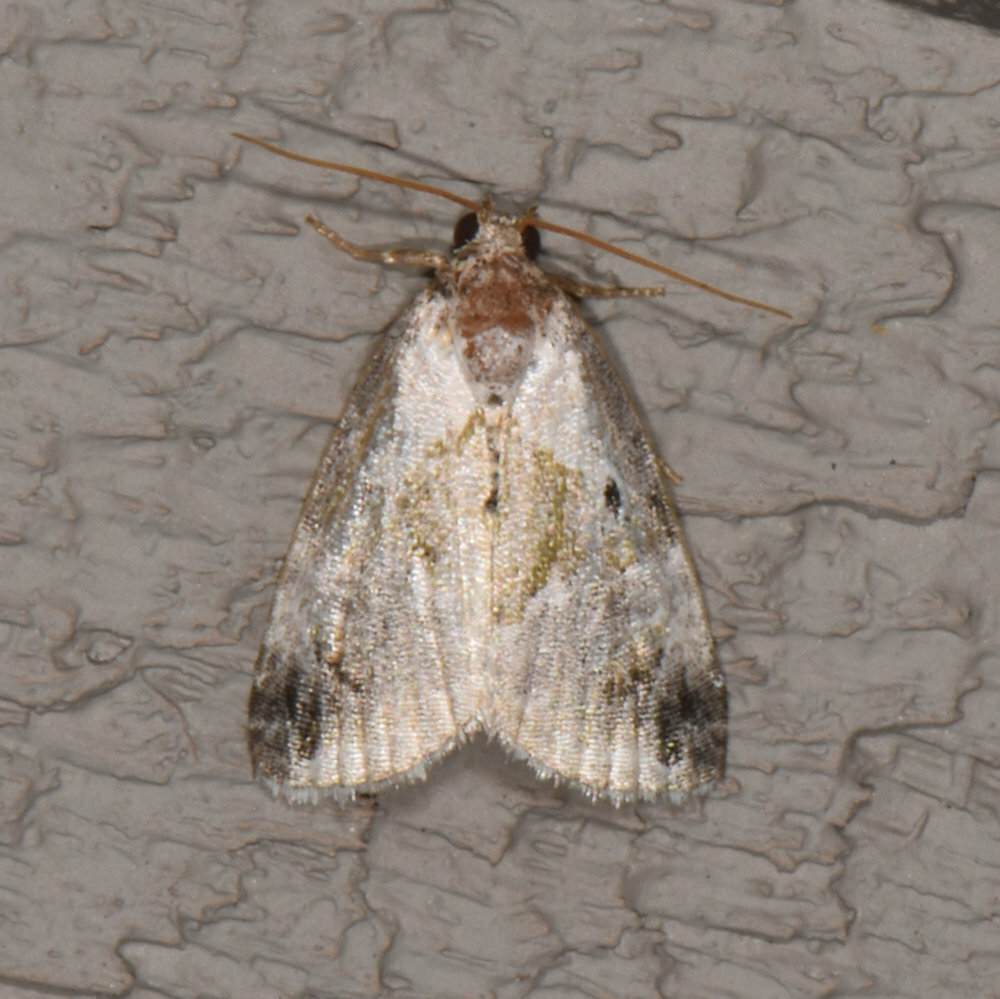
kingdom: Animalia
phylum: Arthropoda
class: Insecta
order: Lepidoptera
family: Noctuidae
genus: Maliattha
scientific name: Maliattha synochitis
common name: Black-dotted glyph
